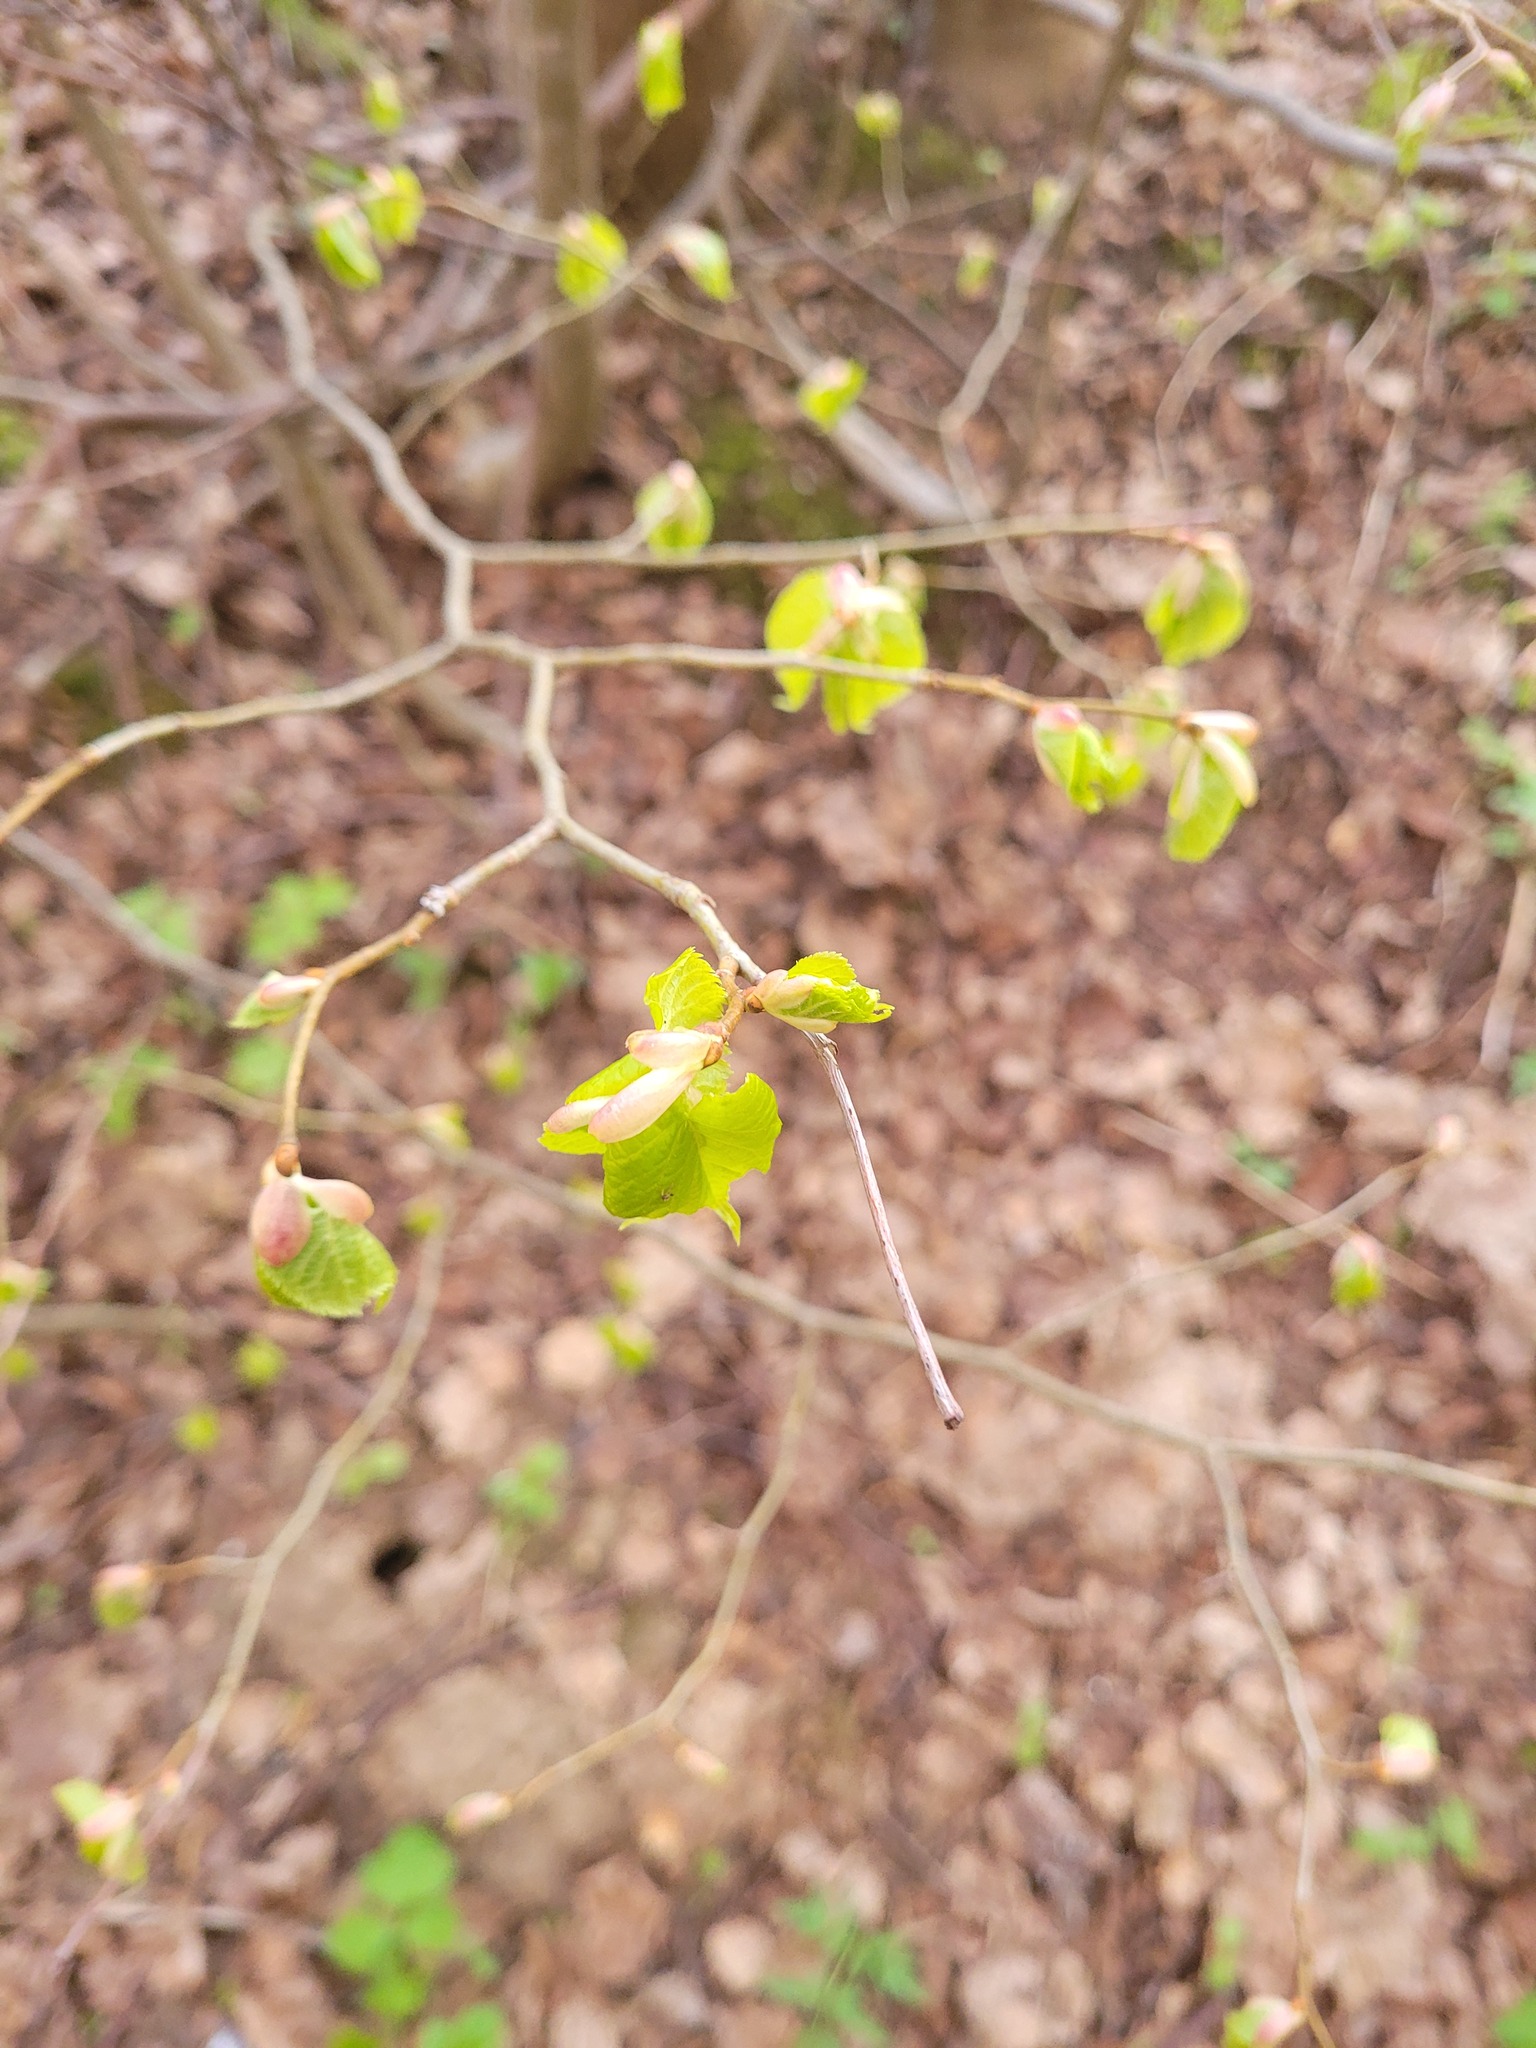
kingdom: Plantae
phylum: Tracheophyta
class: Magnoliopsida
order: Malvales
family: Malvaceae
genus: Tilia
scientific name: Tilia cordata
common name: Small-leaved lime
